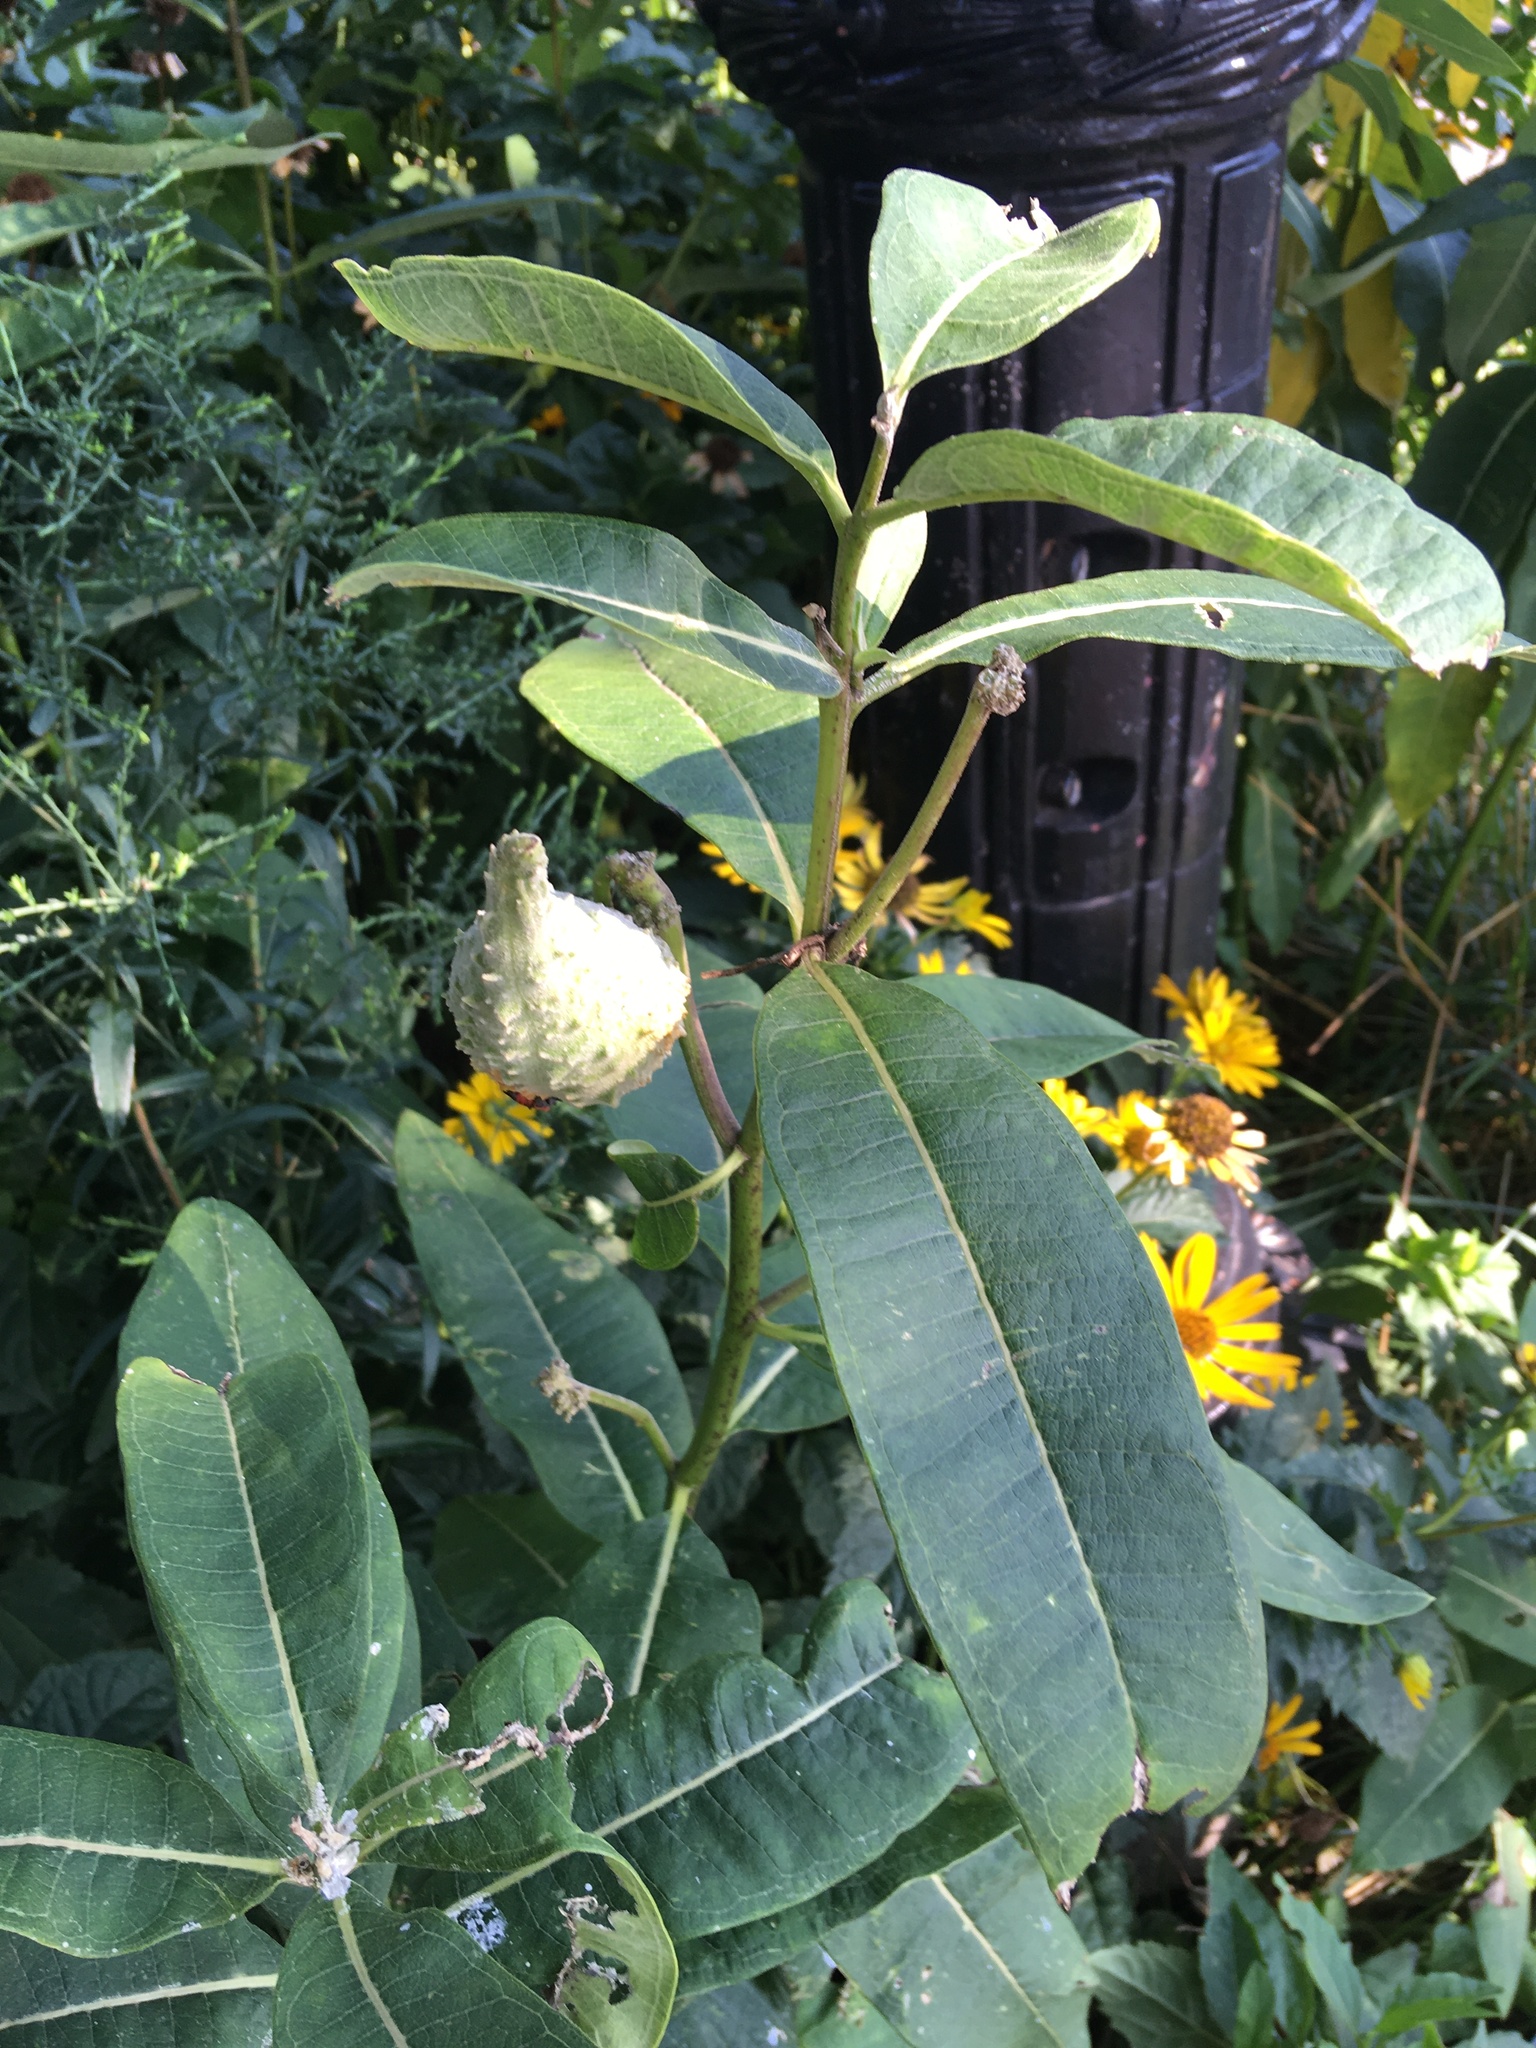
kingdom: Plantae
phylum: Tracheophyta
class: Magnoliopsida
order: Gentianales
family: Apocynaceae
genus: Asclepias
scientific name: Asclepias syriaca
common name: Common milkweed
